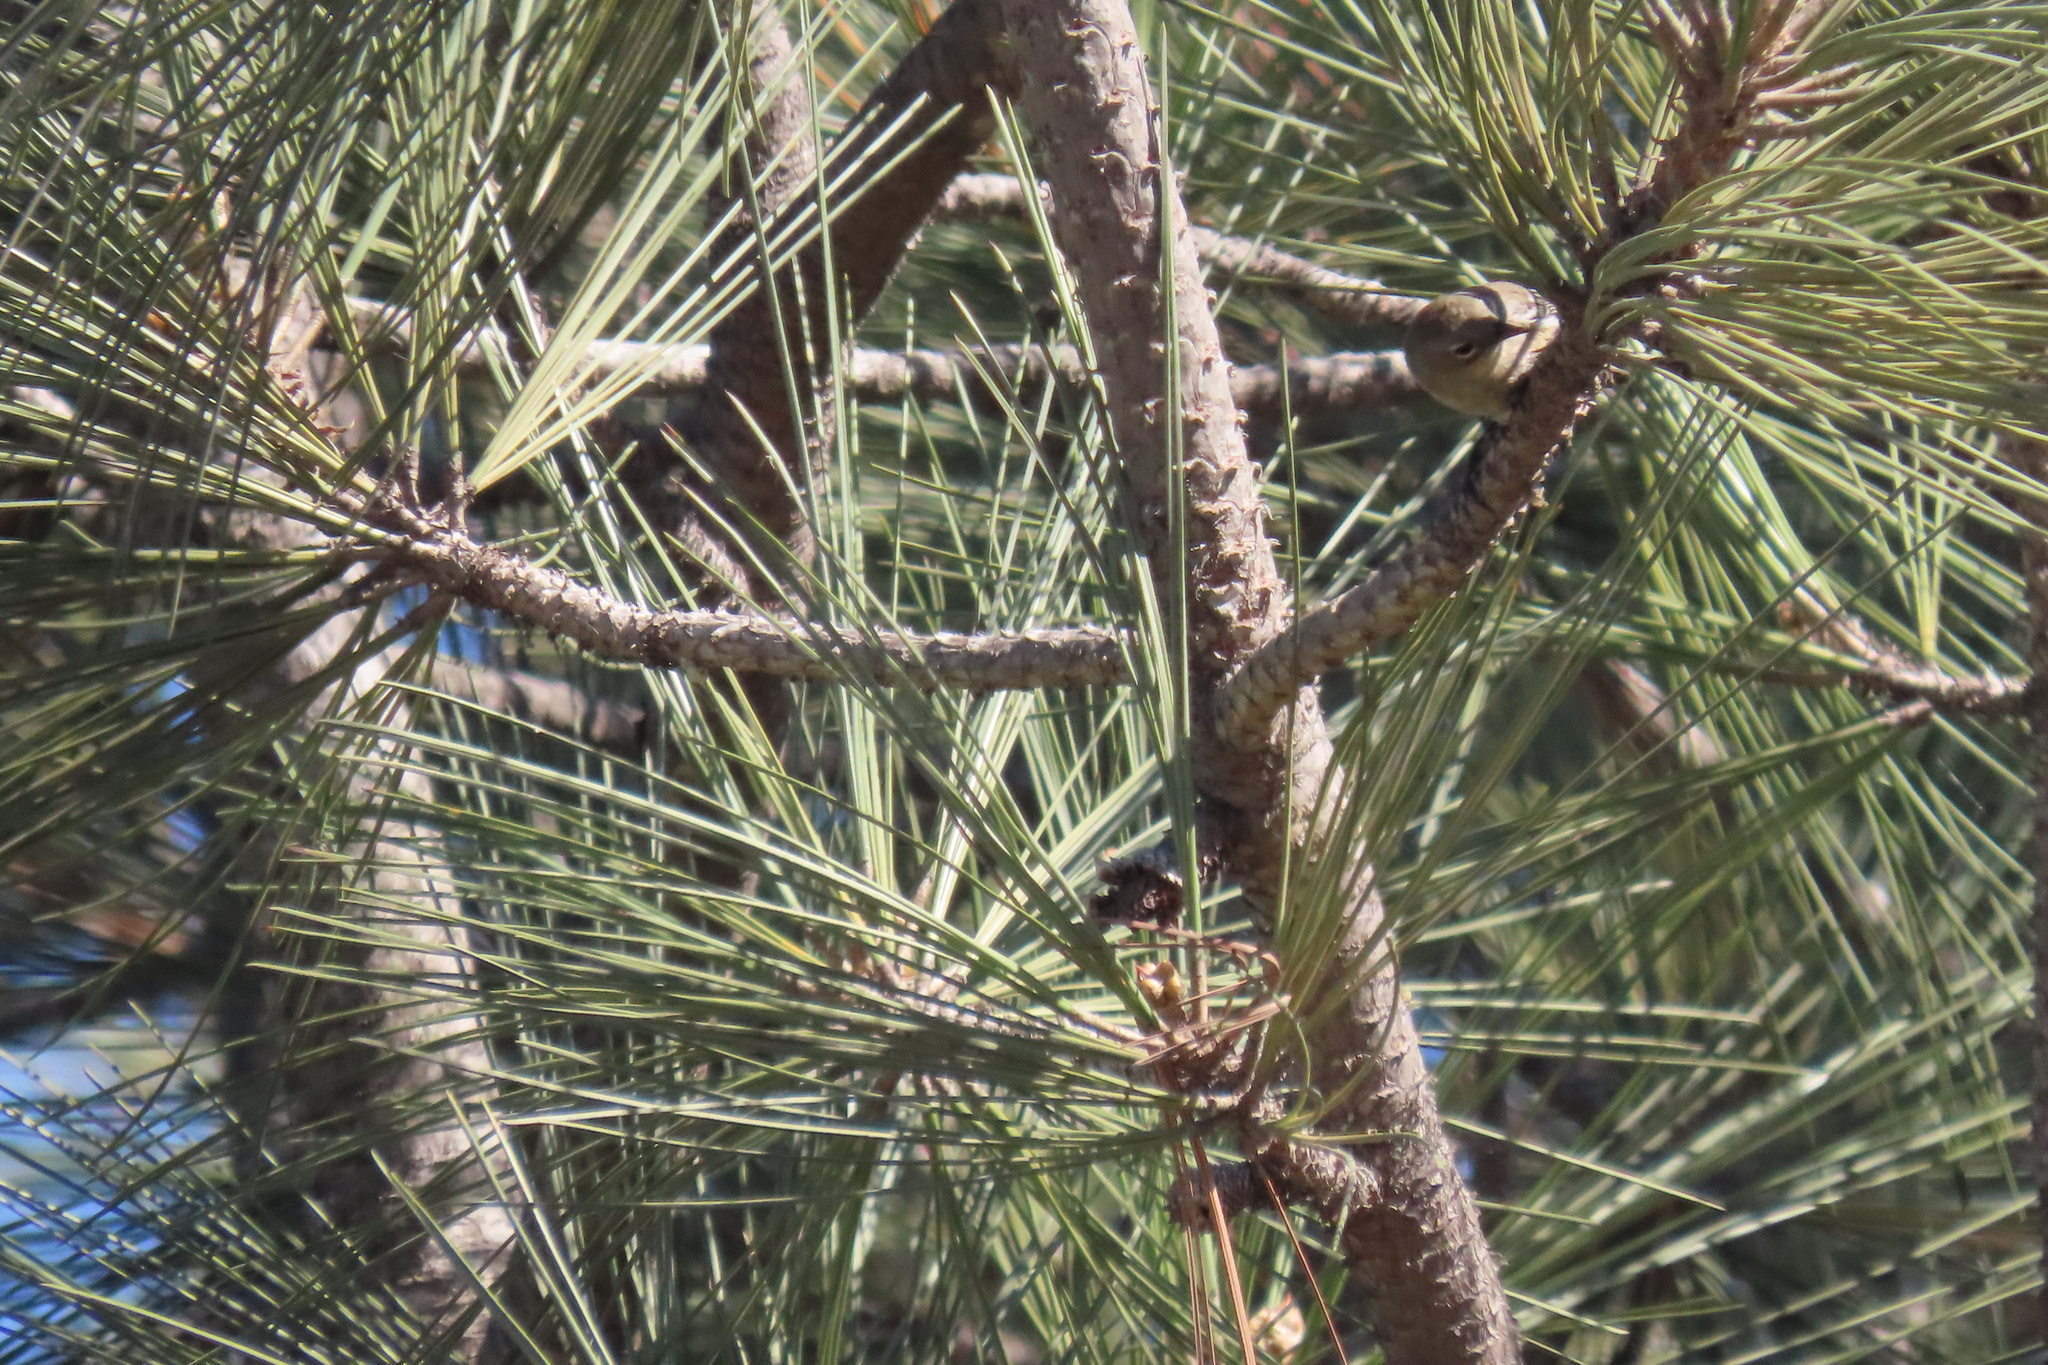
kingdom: Animalia
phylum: Chordata
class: Aves
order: Passeriformes
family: Parulidae
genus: Setophaga
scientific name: Setophaga auduboni
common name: Audubon's warbler
